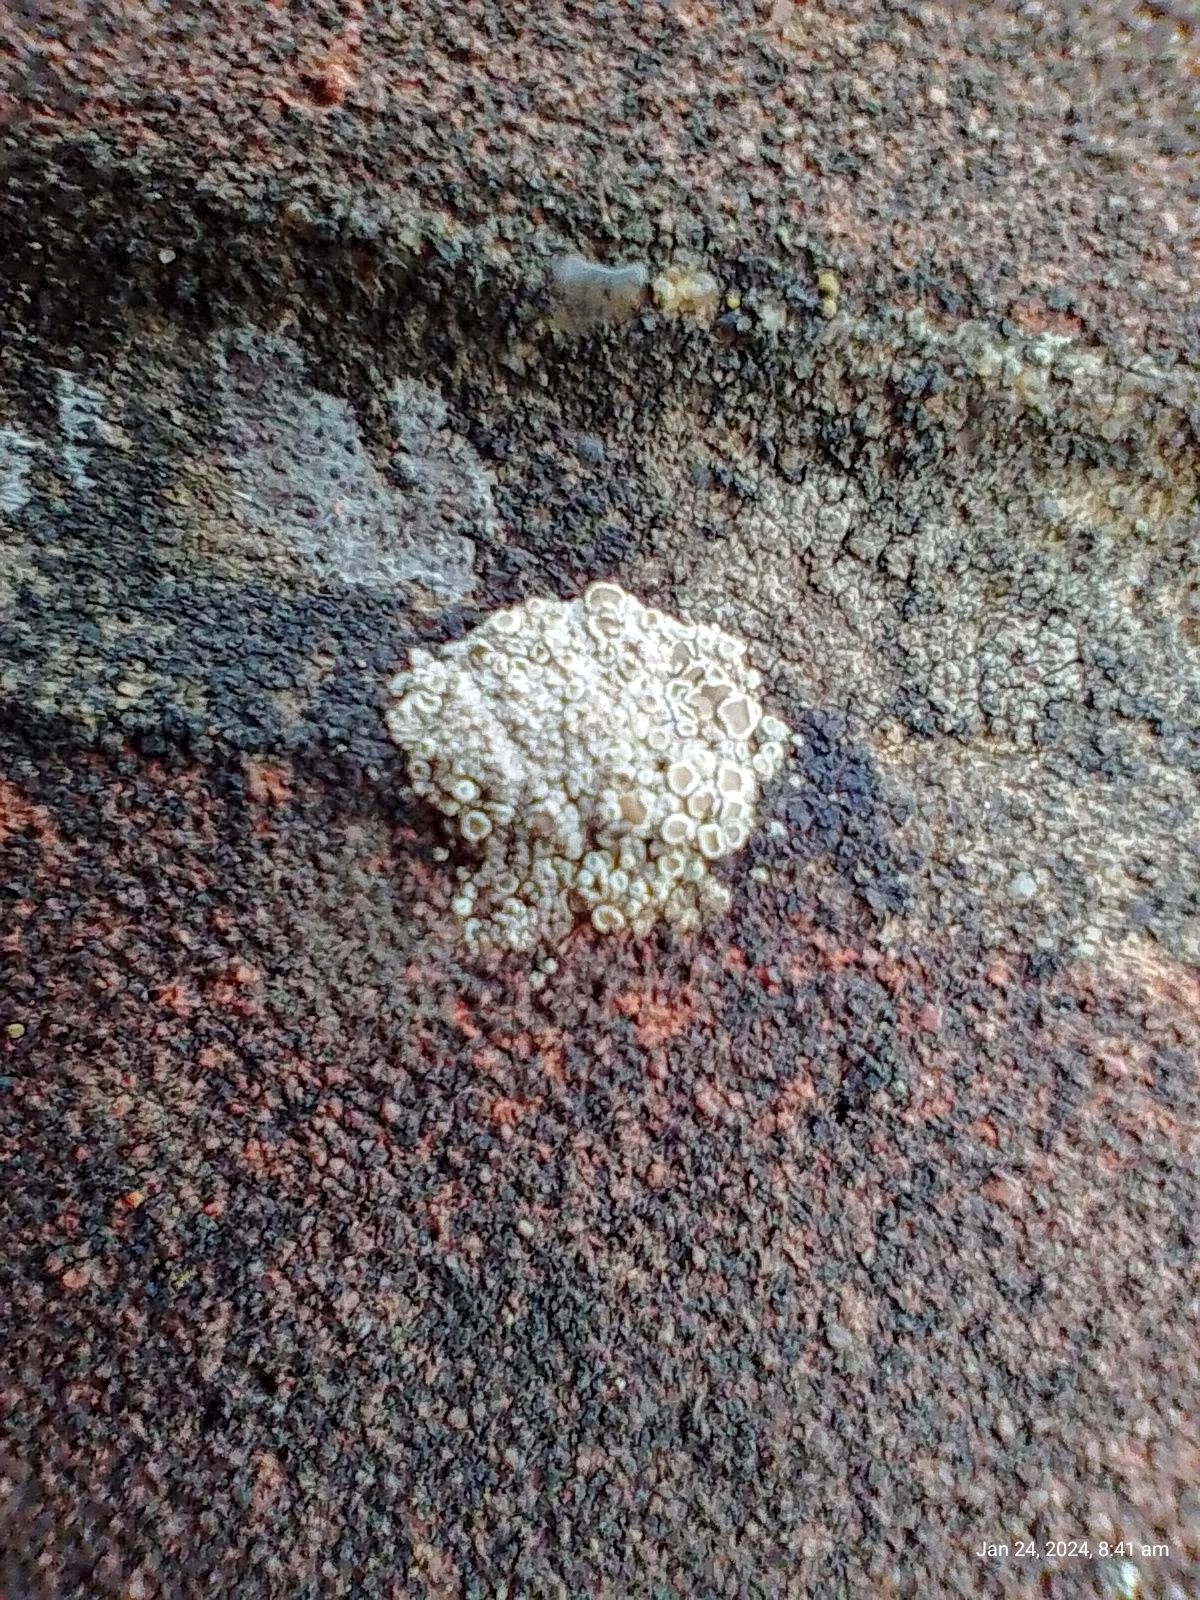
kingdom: Fungi
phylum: Ascomycota
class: Lecanoromycetes
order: Lecanorales
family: Lecanoraceae
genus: Polyozosia
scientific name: Polyozosia albescens
